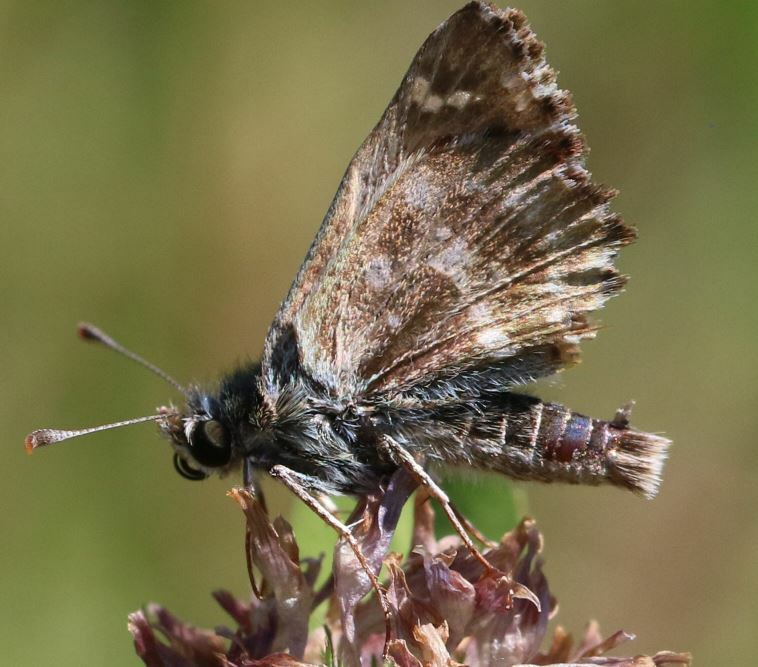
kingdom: Animalia
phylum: Arthropoda
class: Insecta
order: Lepidoptera
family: Hesperiidae
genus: Carcharodus
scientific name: Carcharodus alceae
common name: Mallow skipper
